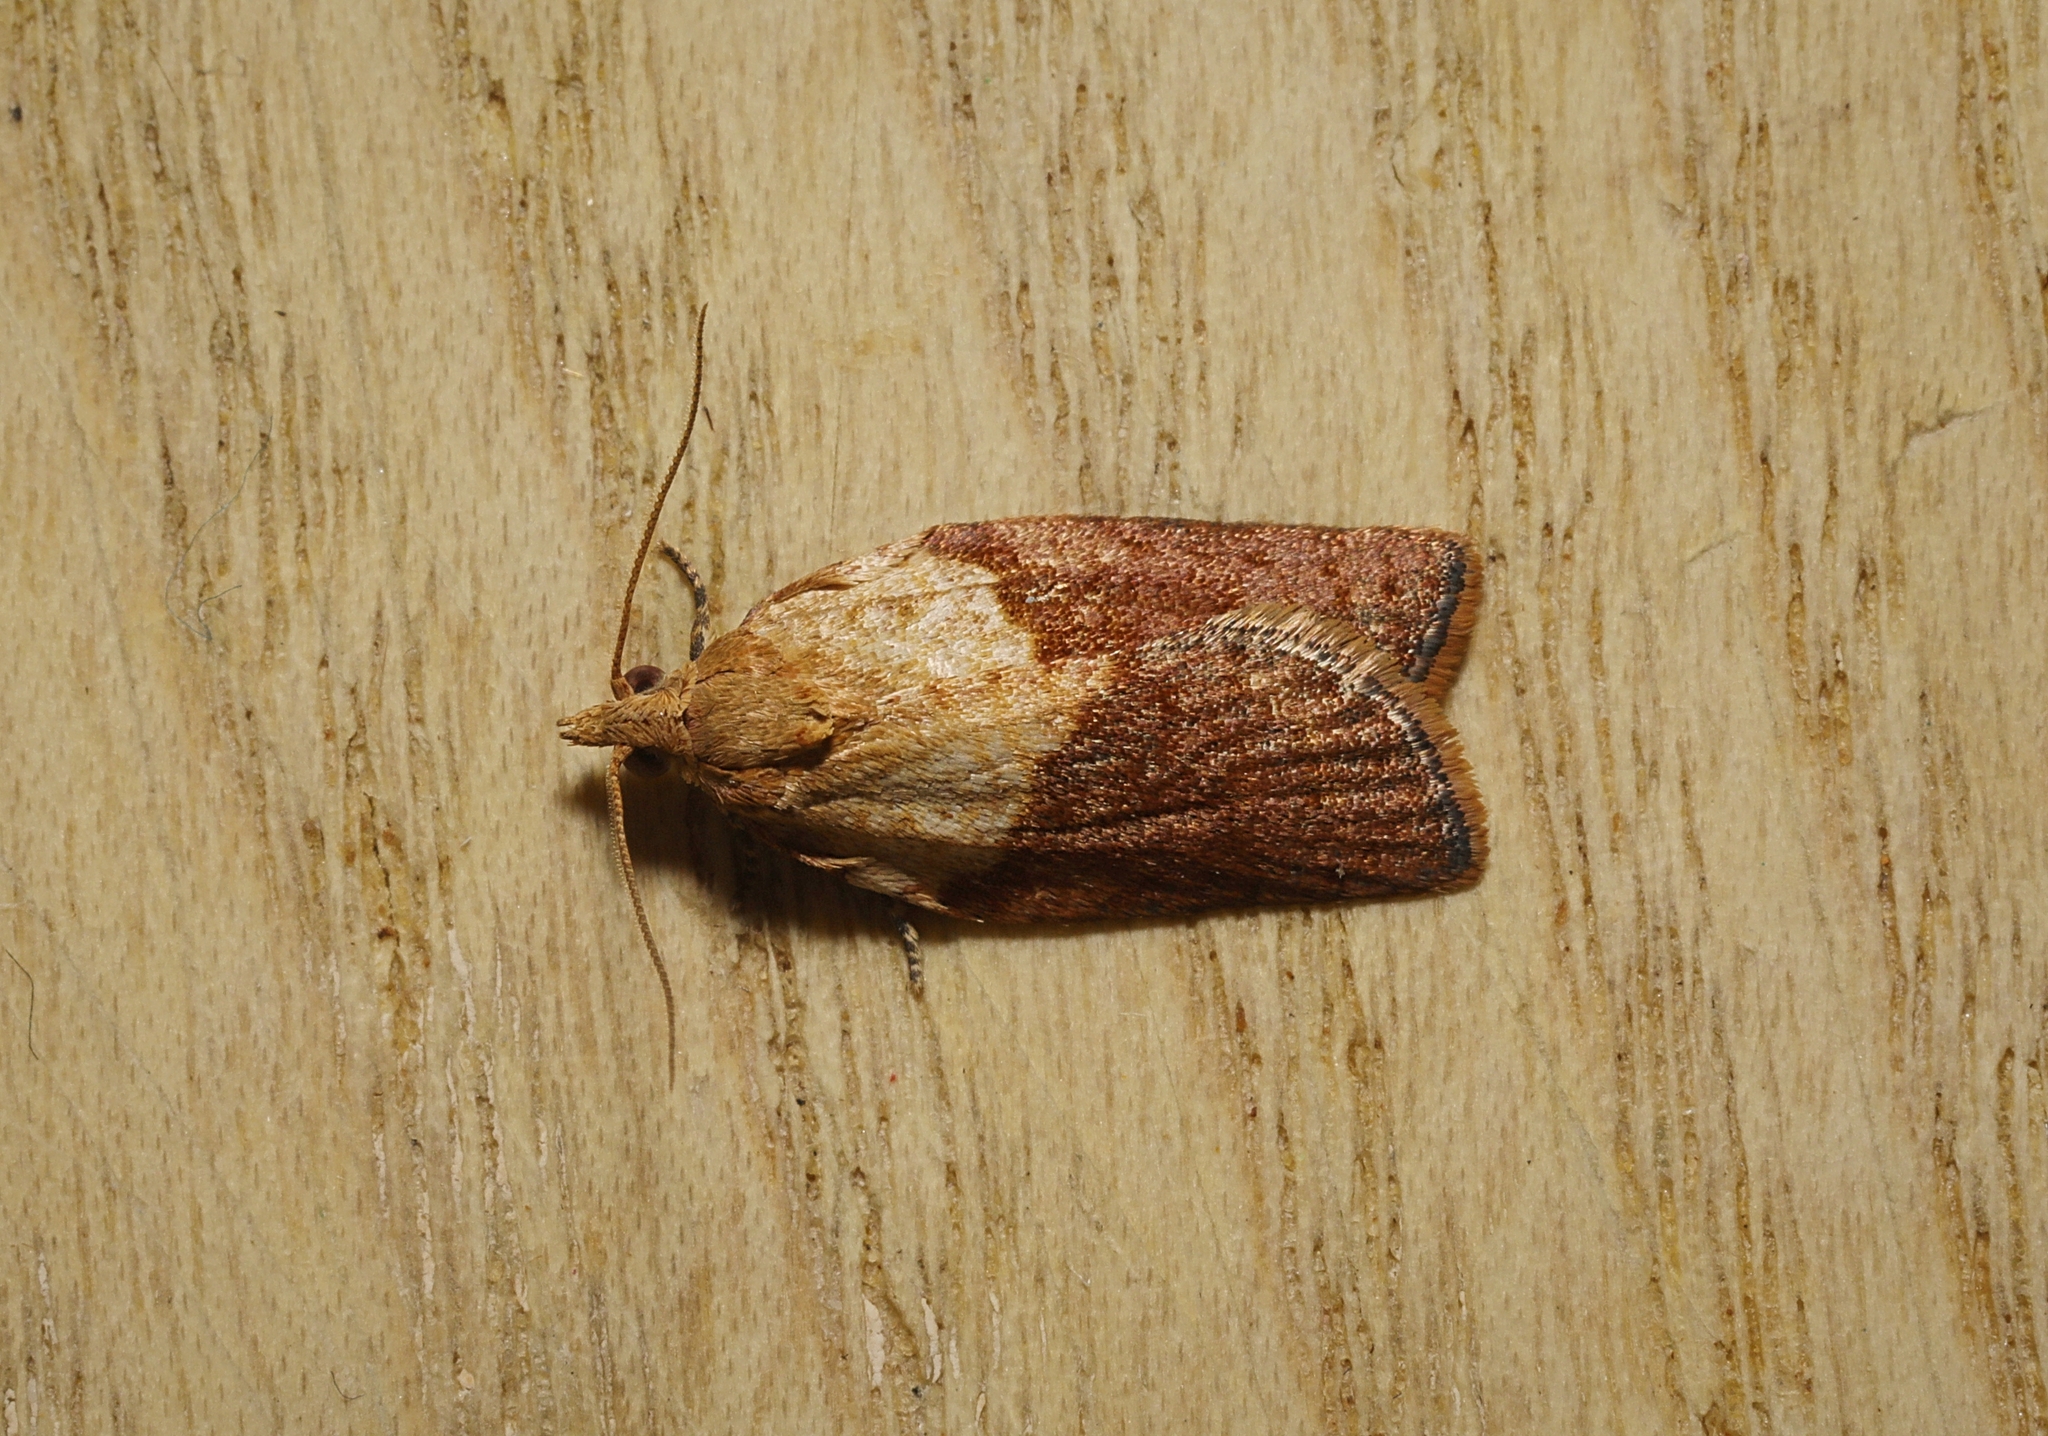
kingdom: Animalia
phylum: Arthropoda
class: Insecta
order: Lepidoptera
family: Tortricidae
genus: Epiphyas
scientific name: Epiphyas postvittana
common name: Light brown apple moth
